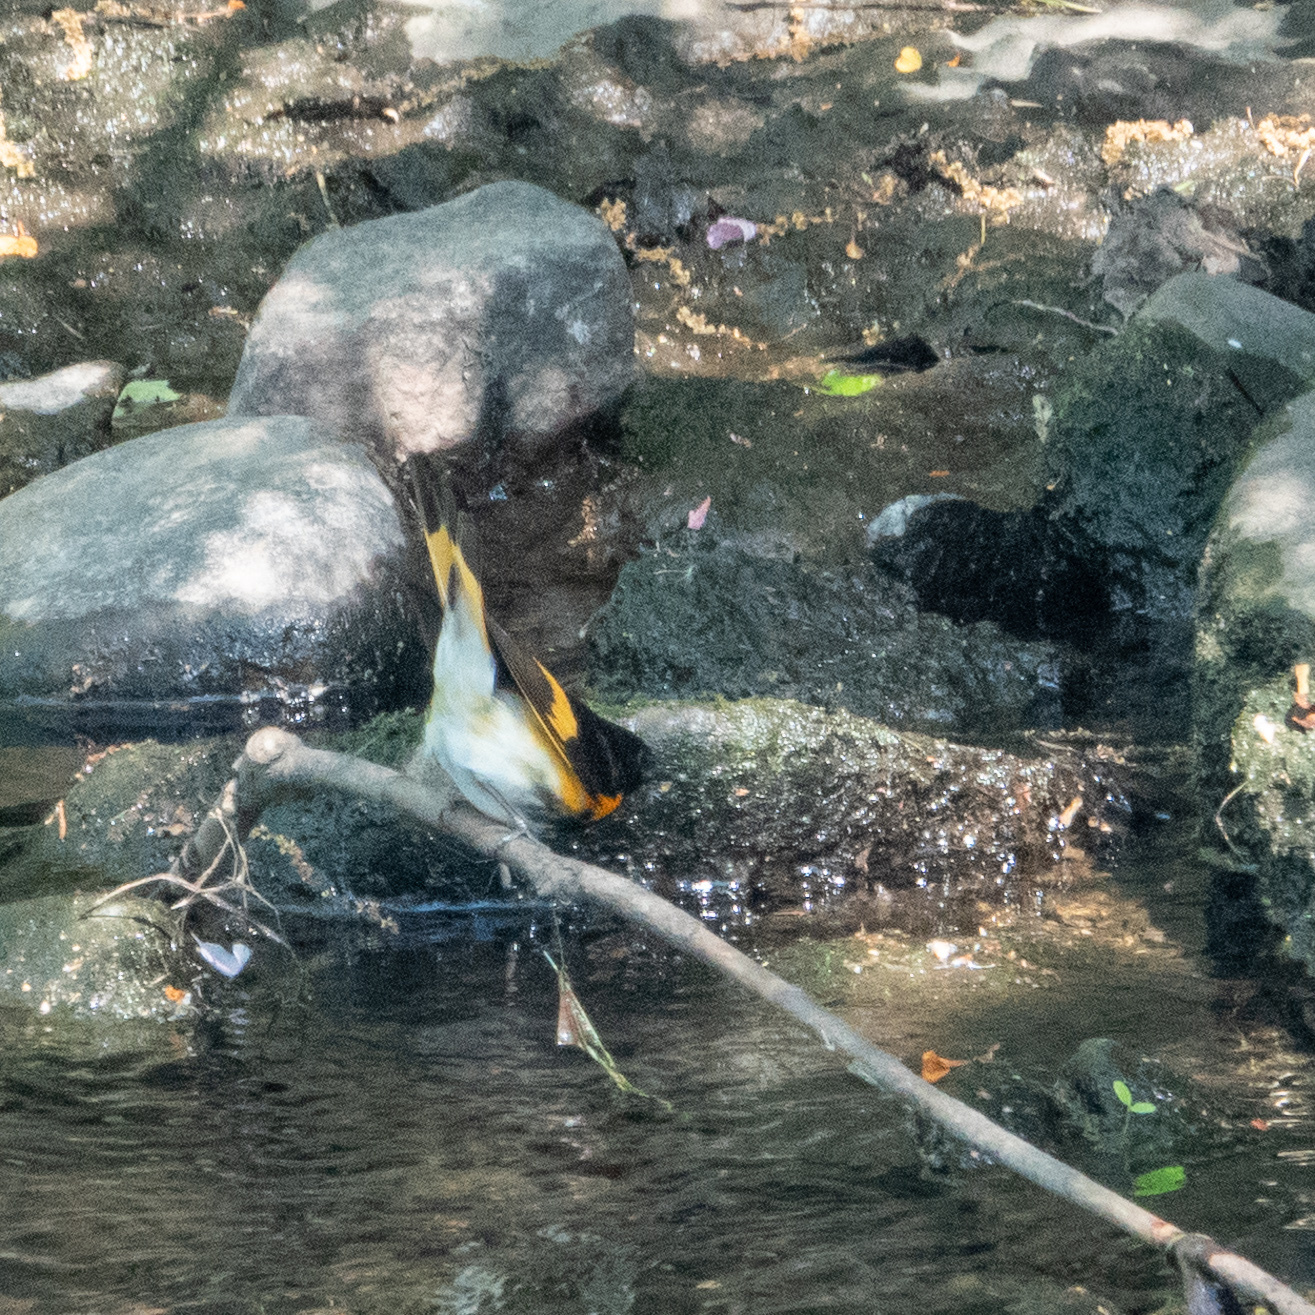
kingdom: Animalia
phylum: Chordata
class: Aves
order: Passeriformes
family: Parulidae
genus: Setophaga
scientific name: Setophaga ruticilla
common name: American redstart
